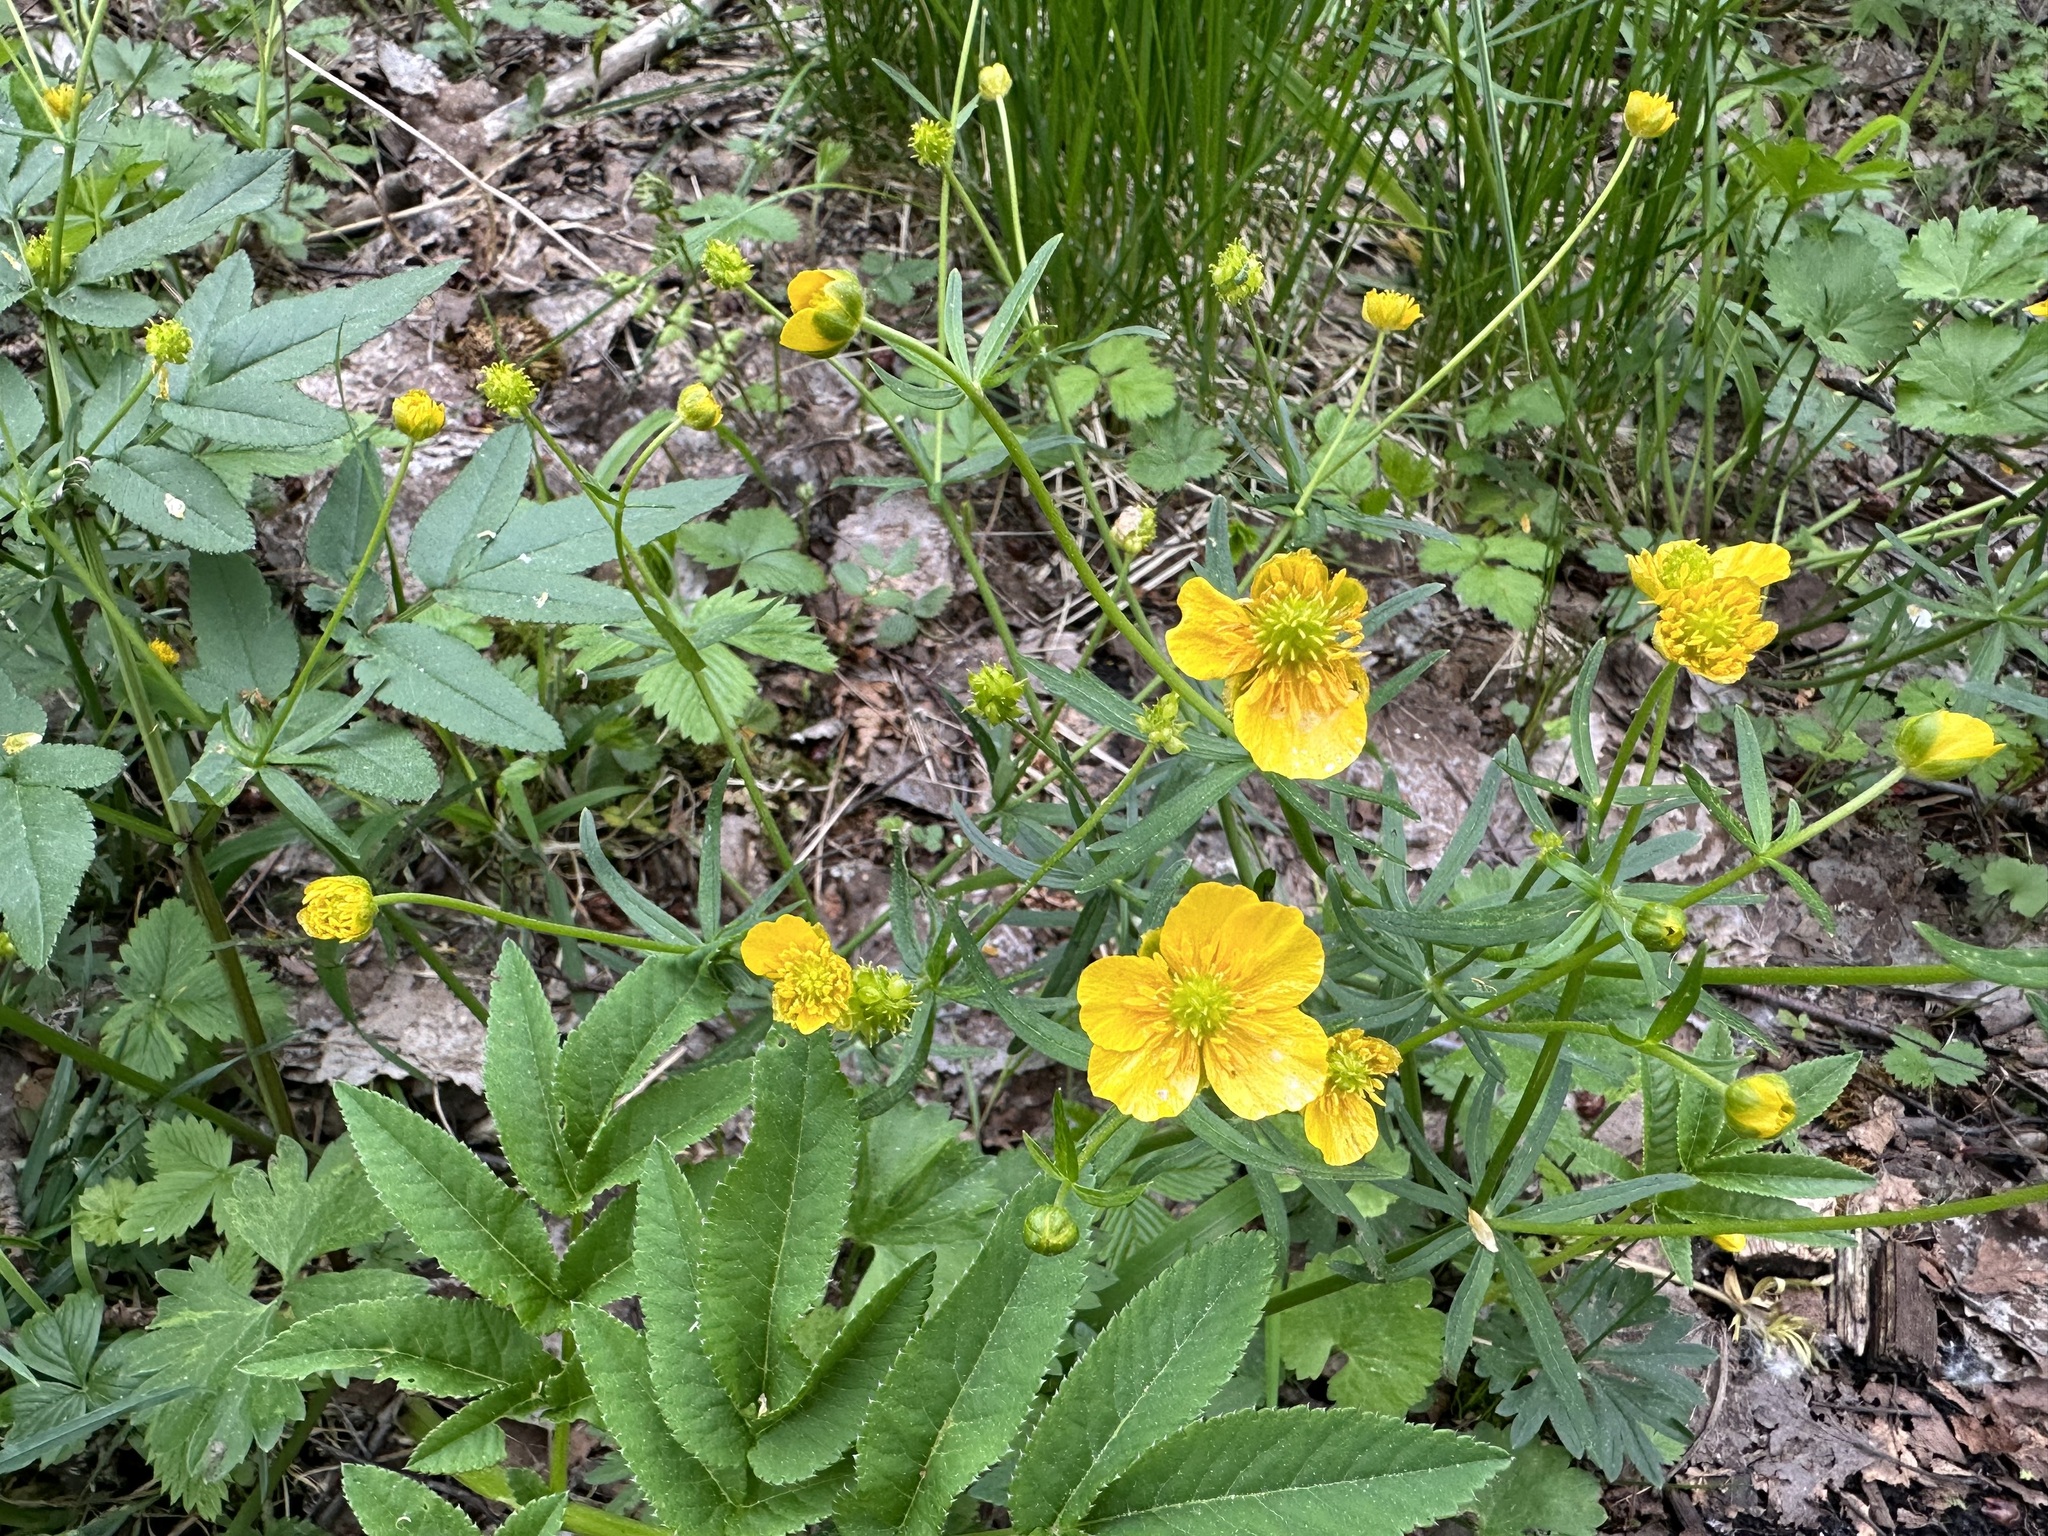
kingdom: Plantae
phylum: Tracheophyta
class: Magnoliopsida
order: Ranunculales
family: Ranunculaceae
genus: Ranunculus
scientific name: Ranunculus auricomus
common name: Goldilocks buttercup
